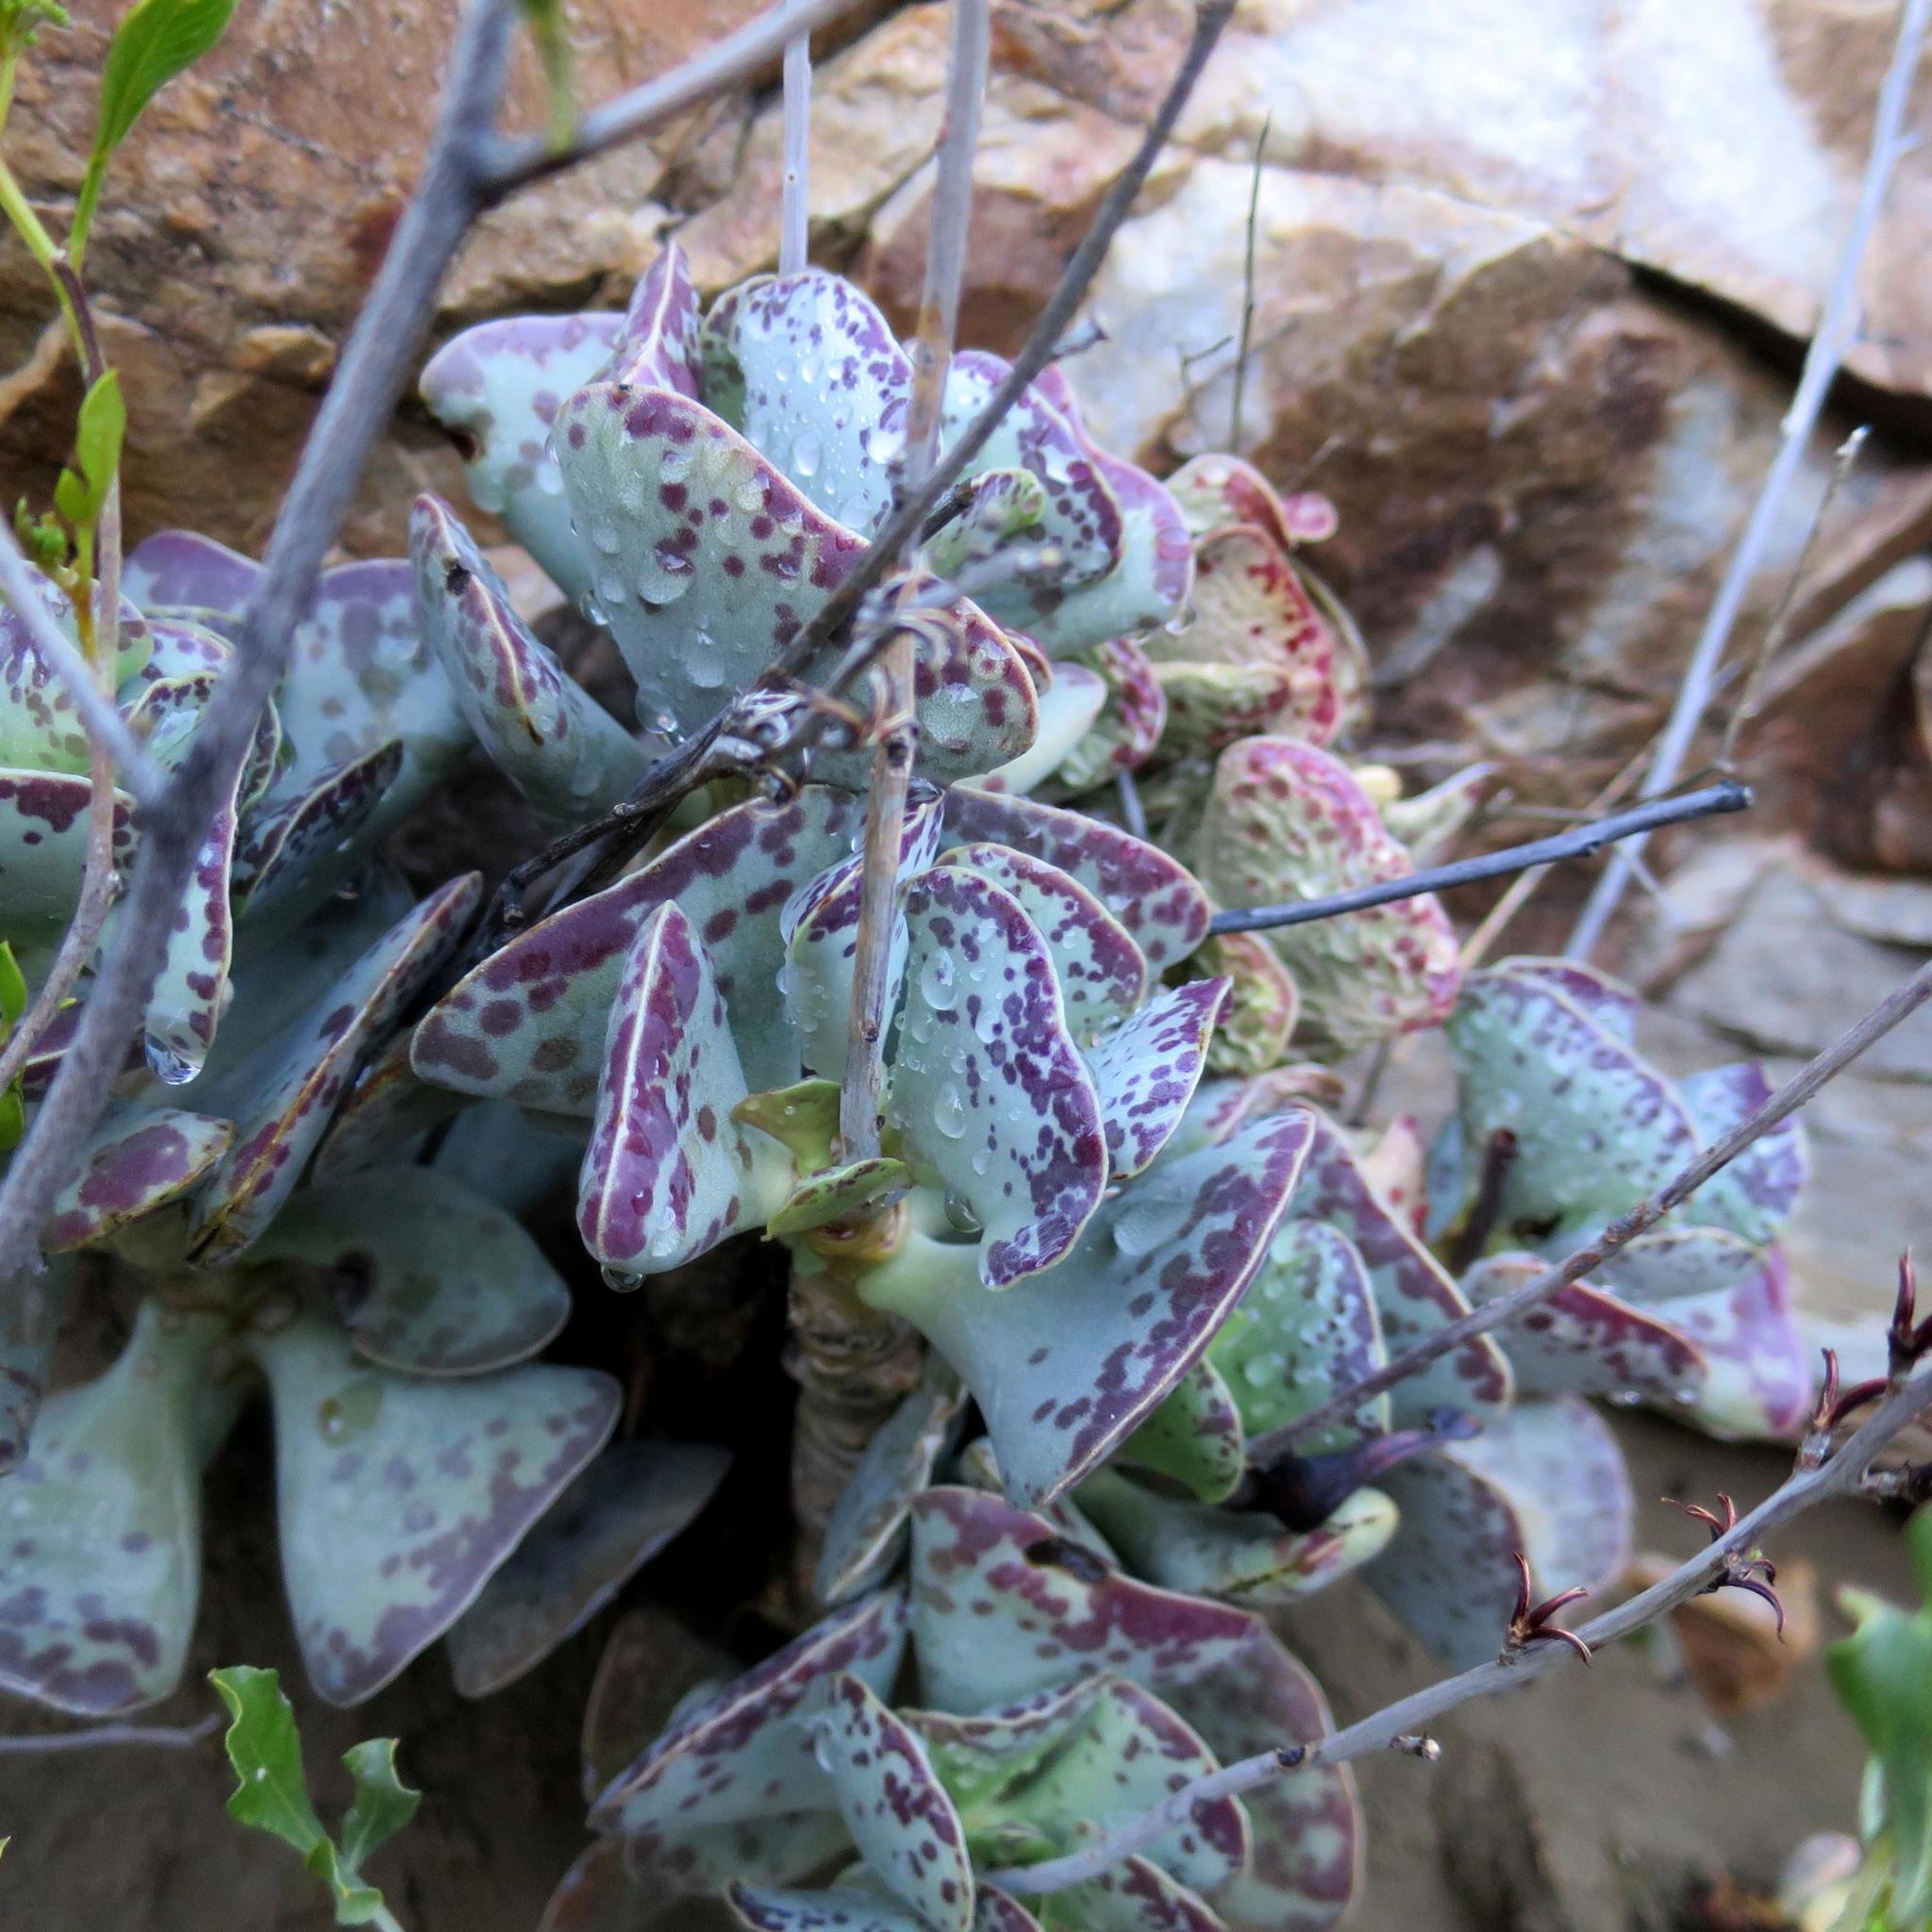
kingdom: Plantae
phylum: Tracheophyta
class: Magnoliopsida
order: Saxifragales
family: Crassulaceae
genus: Adromischus
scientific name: Adromischus triflorus
